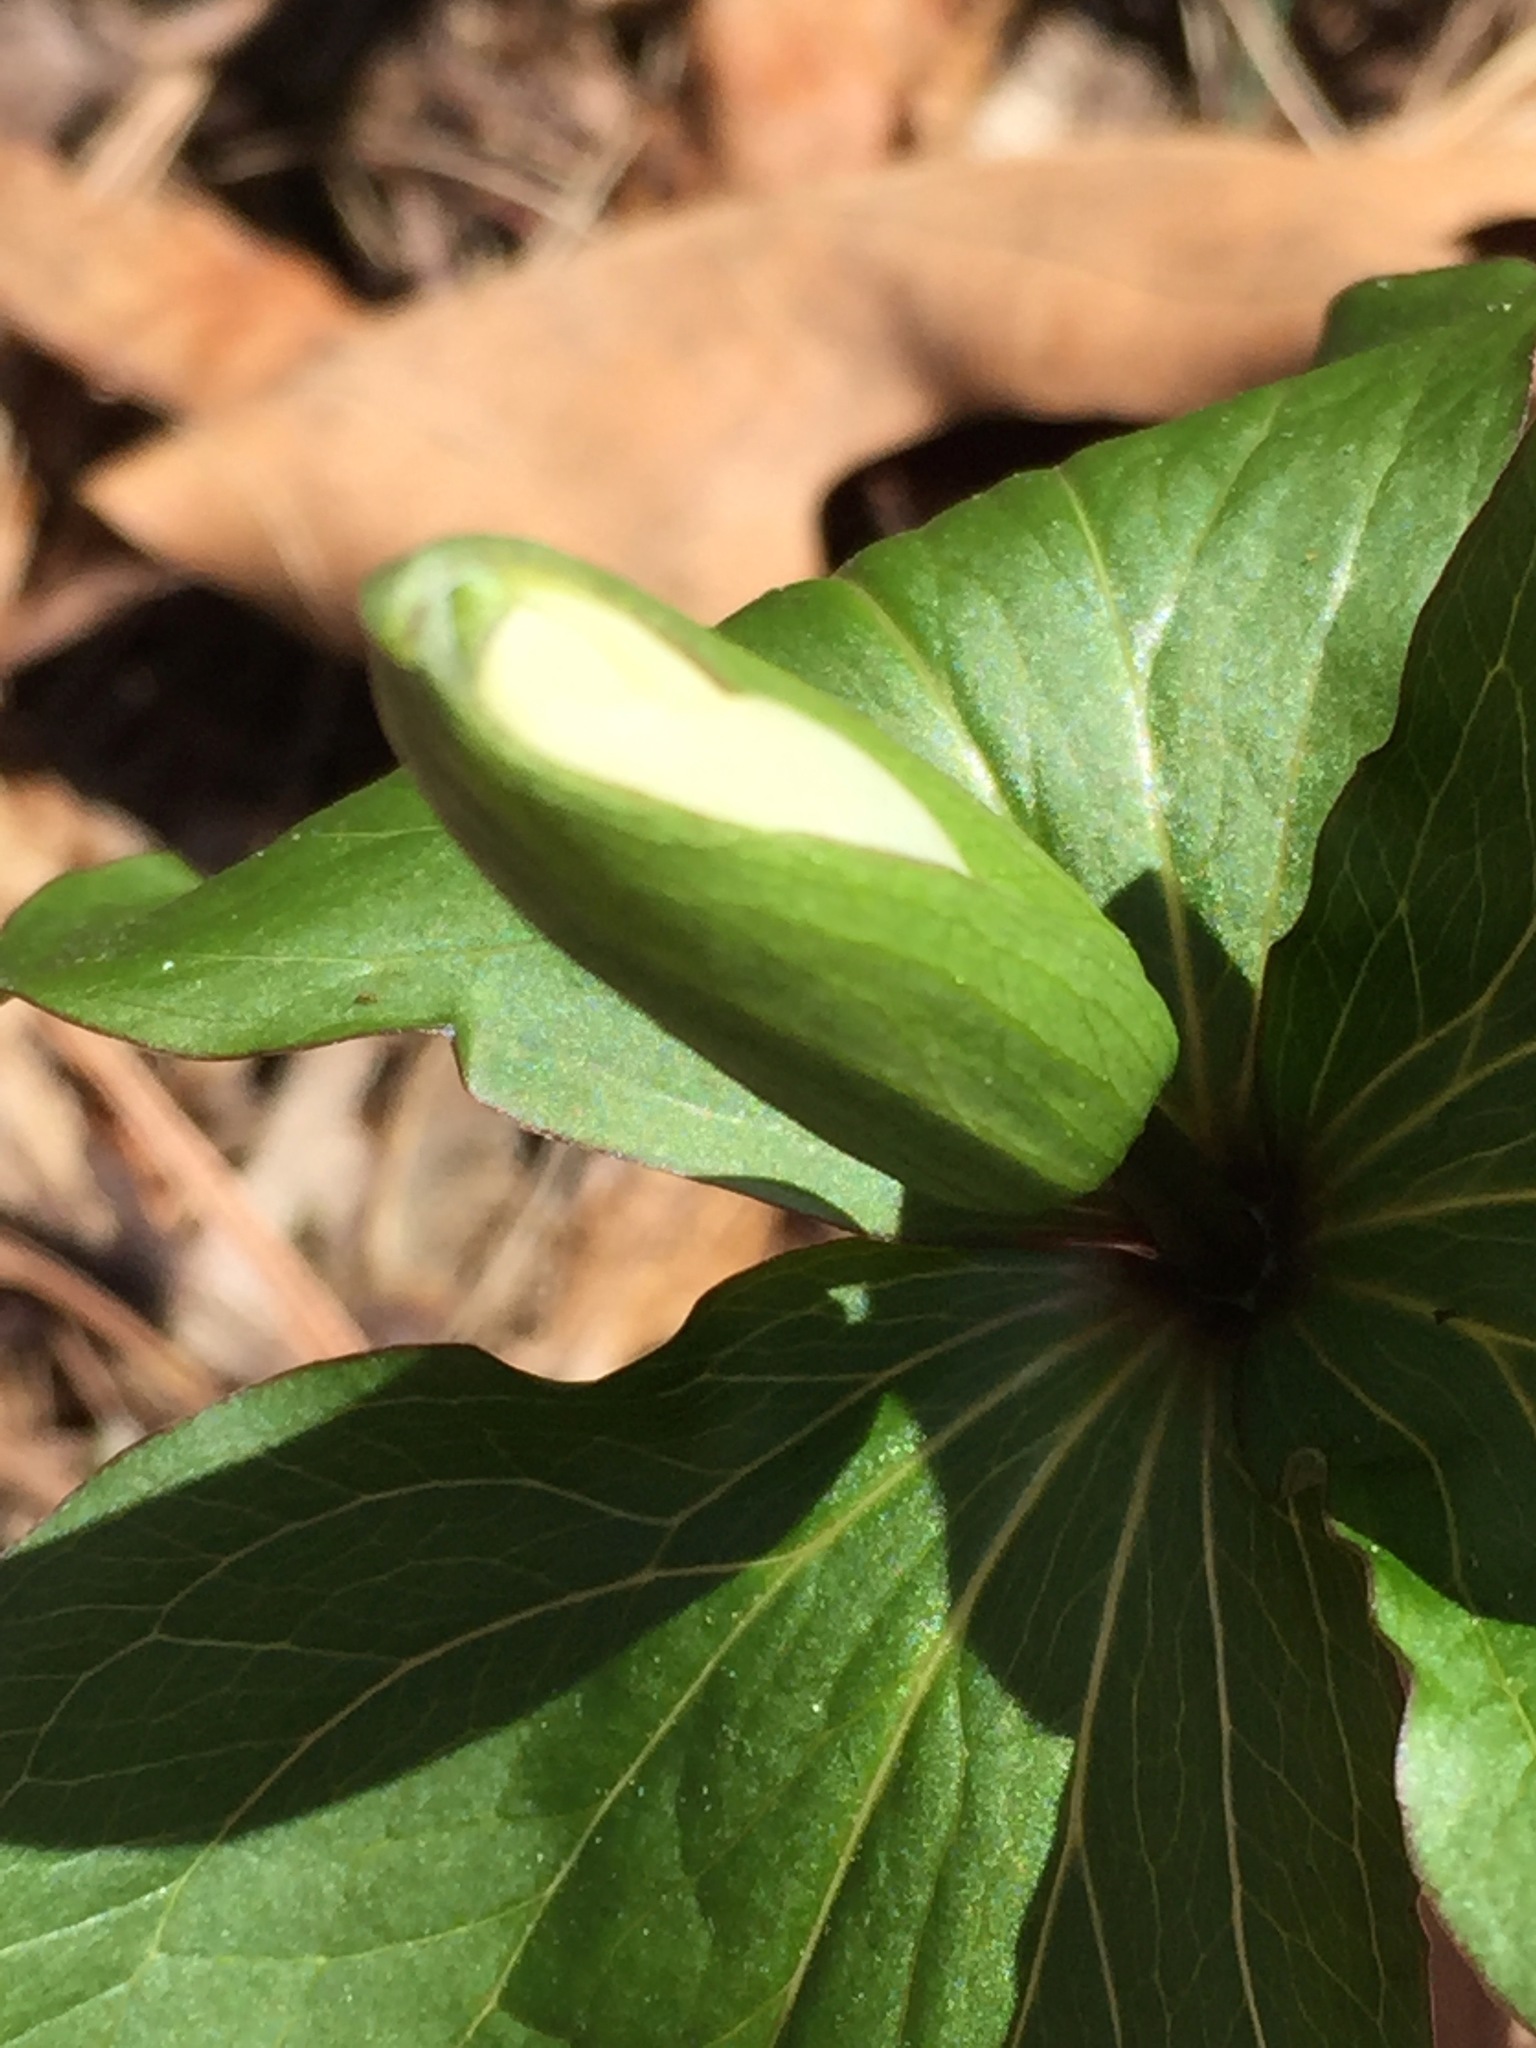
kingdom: Plantae
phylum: Tracheophyta
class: Liliopsida
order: Liliales
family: Melanthiaceae
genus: Trillium
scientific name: Trillium grandiflorum
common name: Great white trillium
